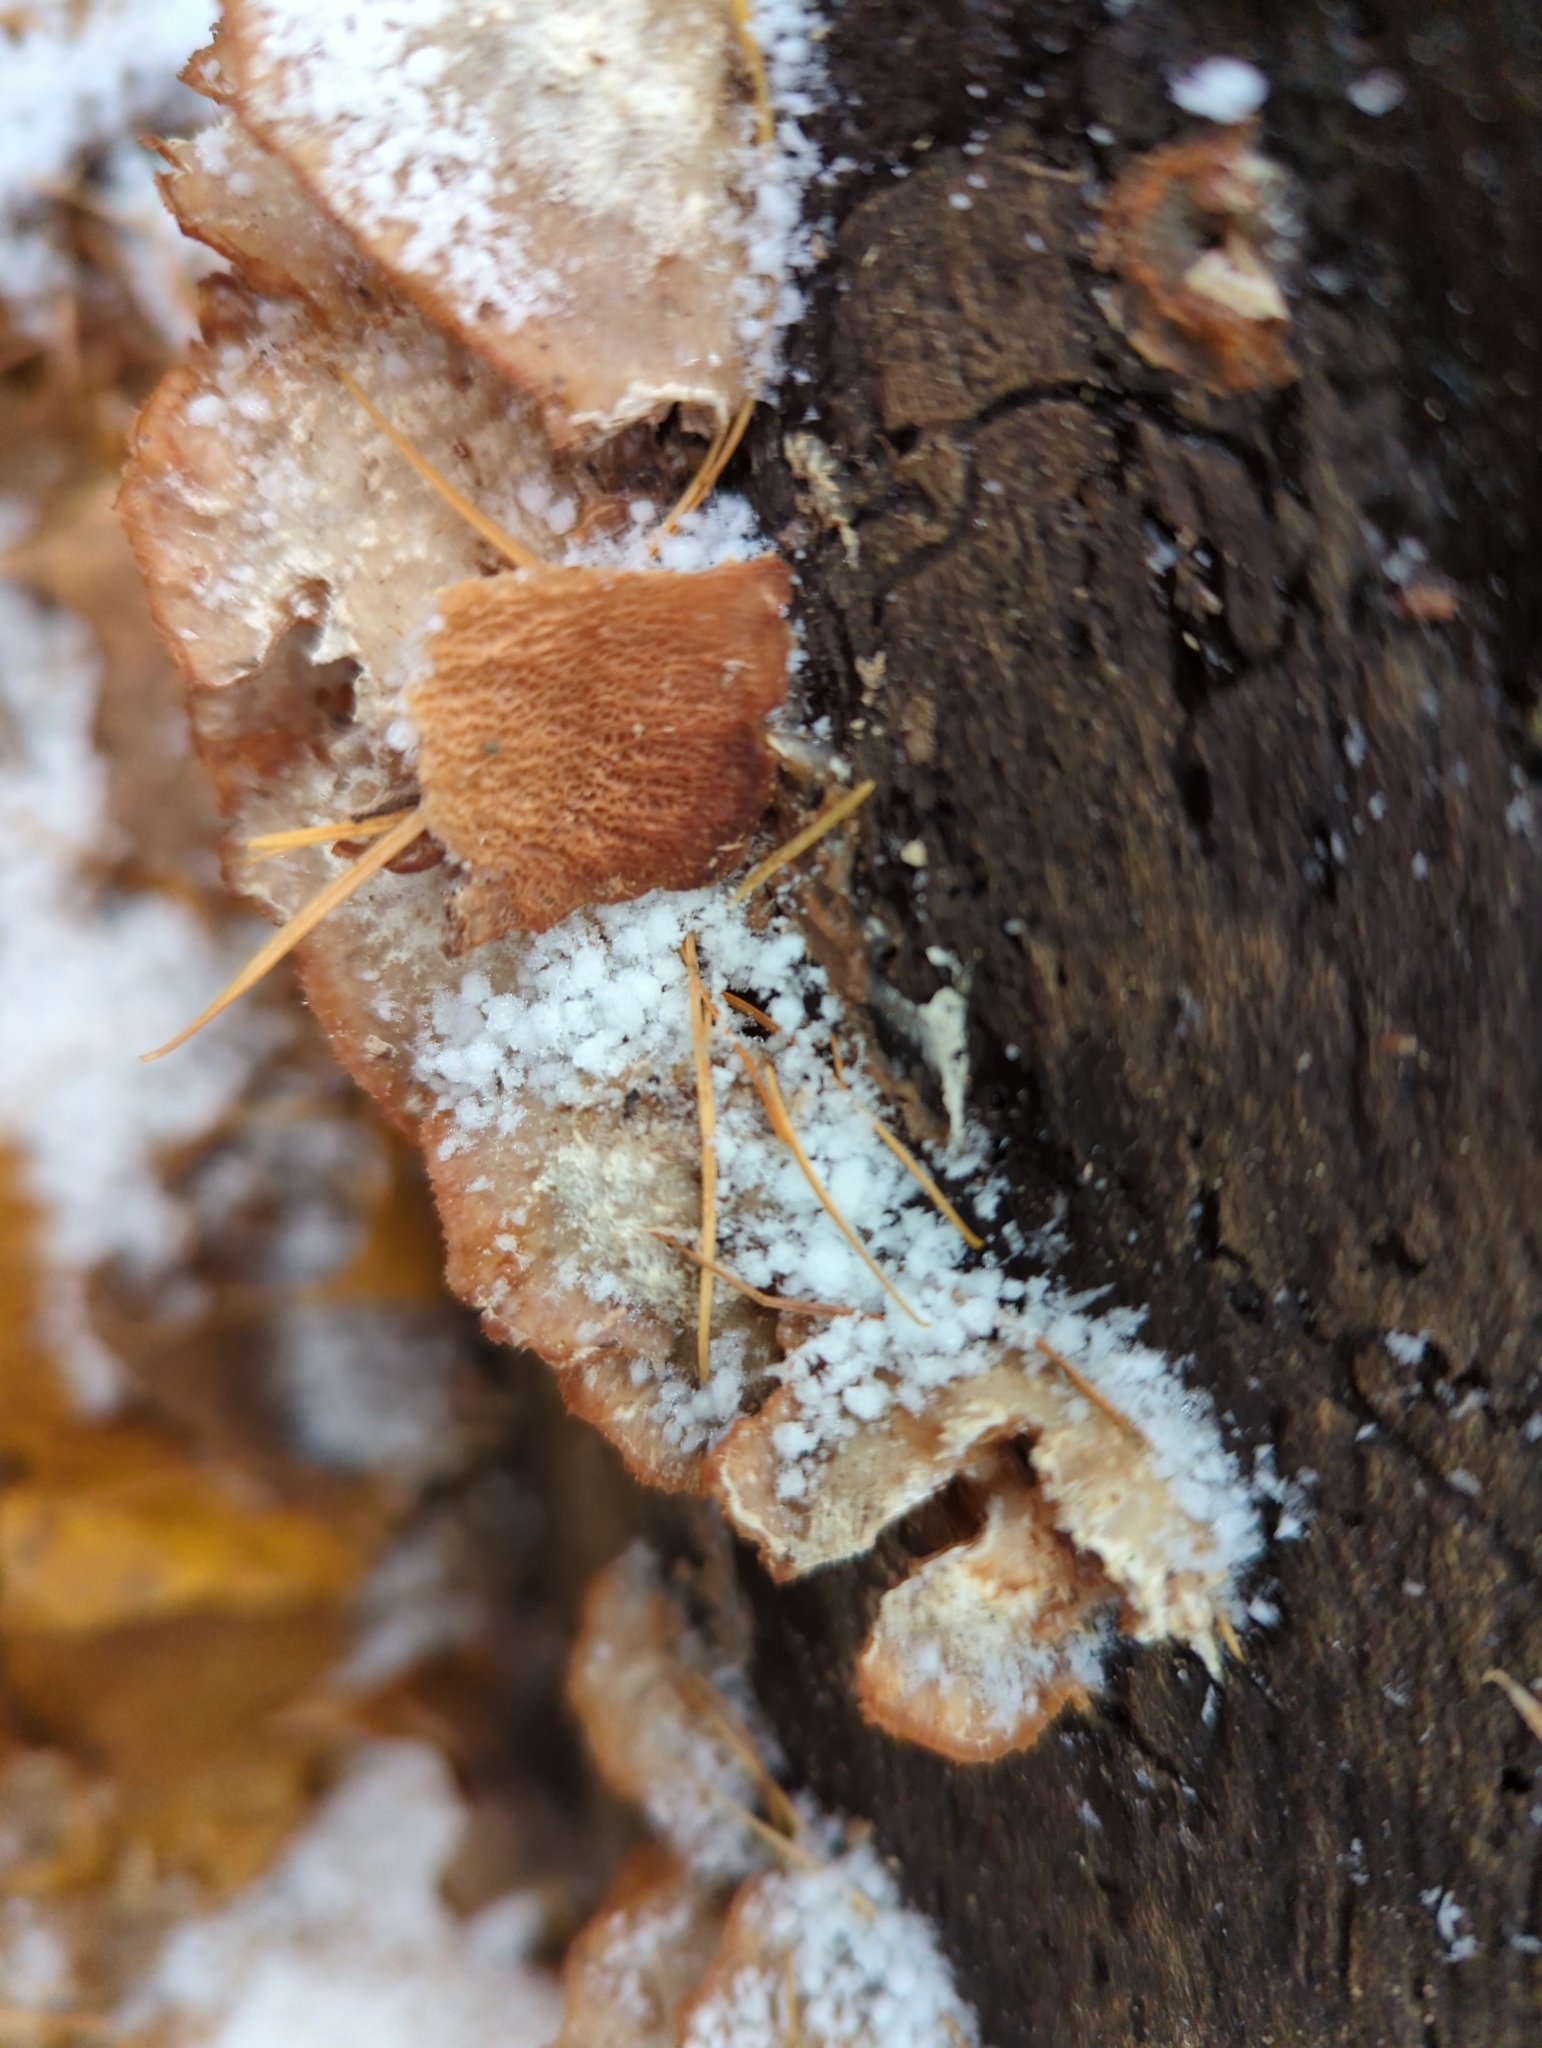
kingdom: Fungi
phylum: Basidiomycota
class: Agaricomycetes
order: Polyporales
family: Meruliaceae
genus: Phlebia
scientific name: Phlebia tremellosa
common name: Jelly rot
